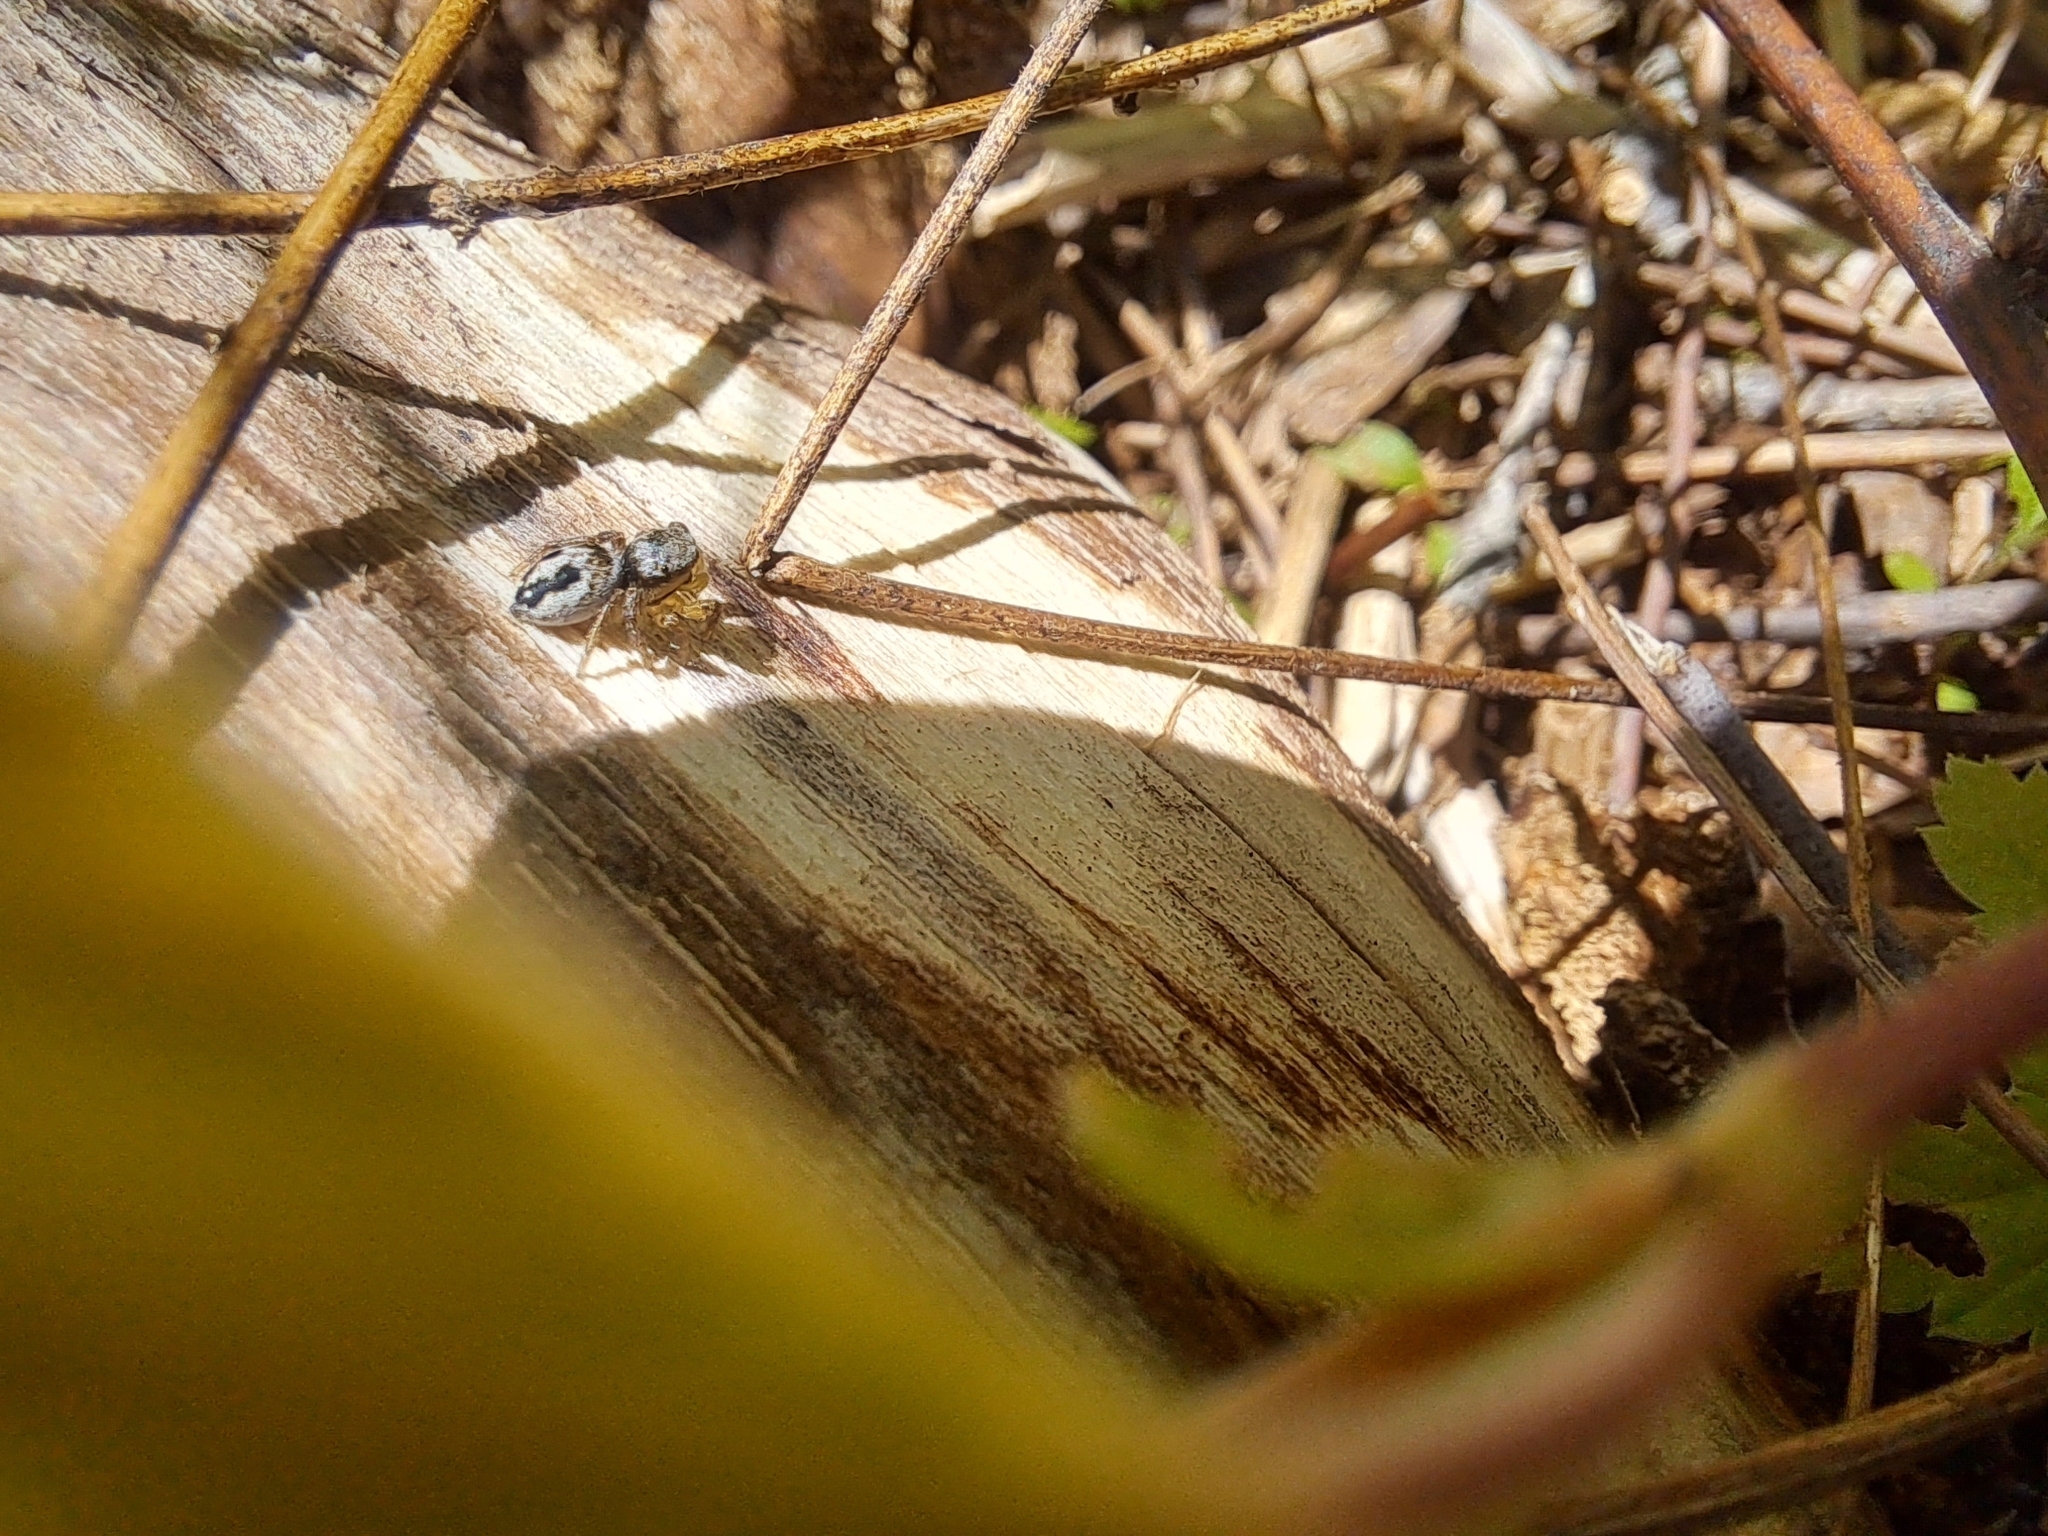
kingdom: Animalia
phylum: Arthropoda
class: Arachnida
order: Araneae
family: Salticidae
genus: Habronattus
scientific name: Habronattus decorus
